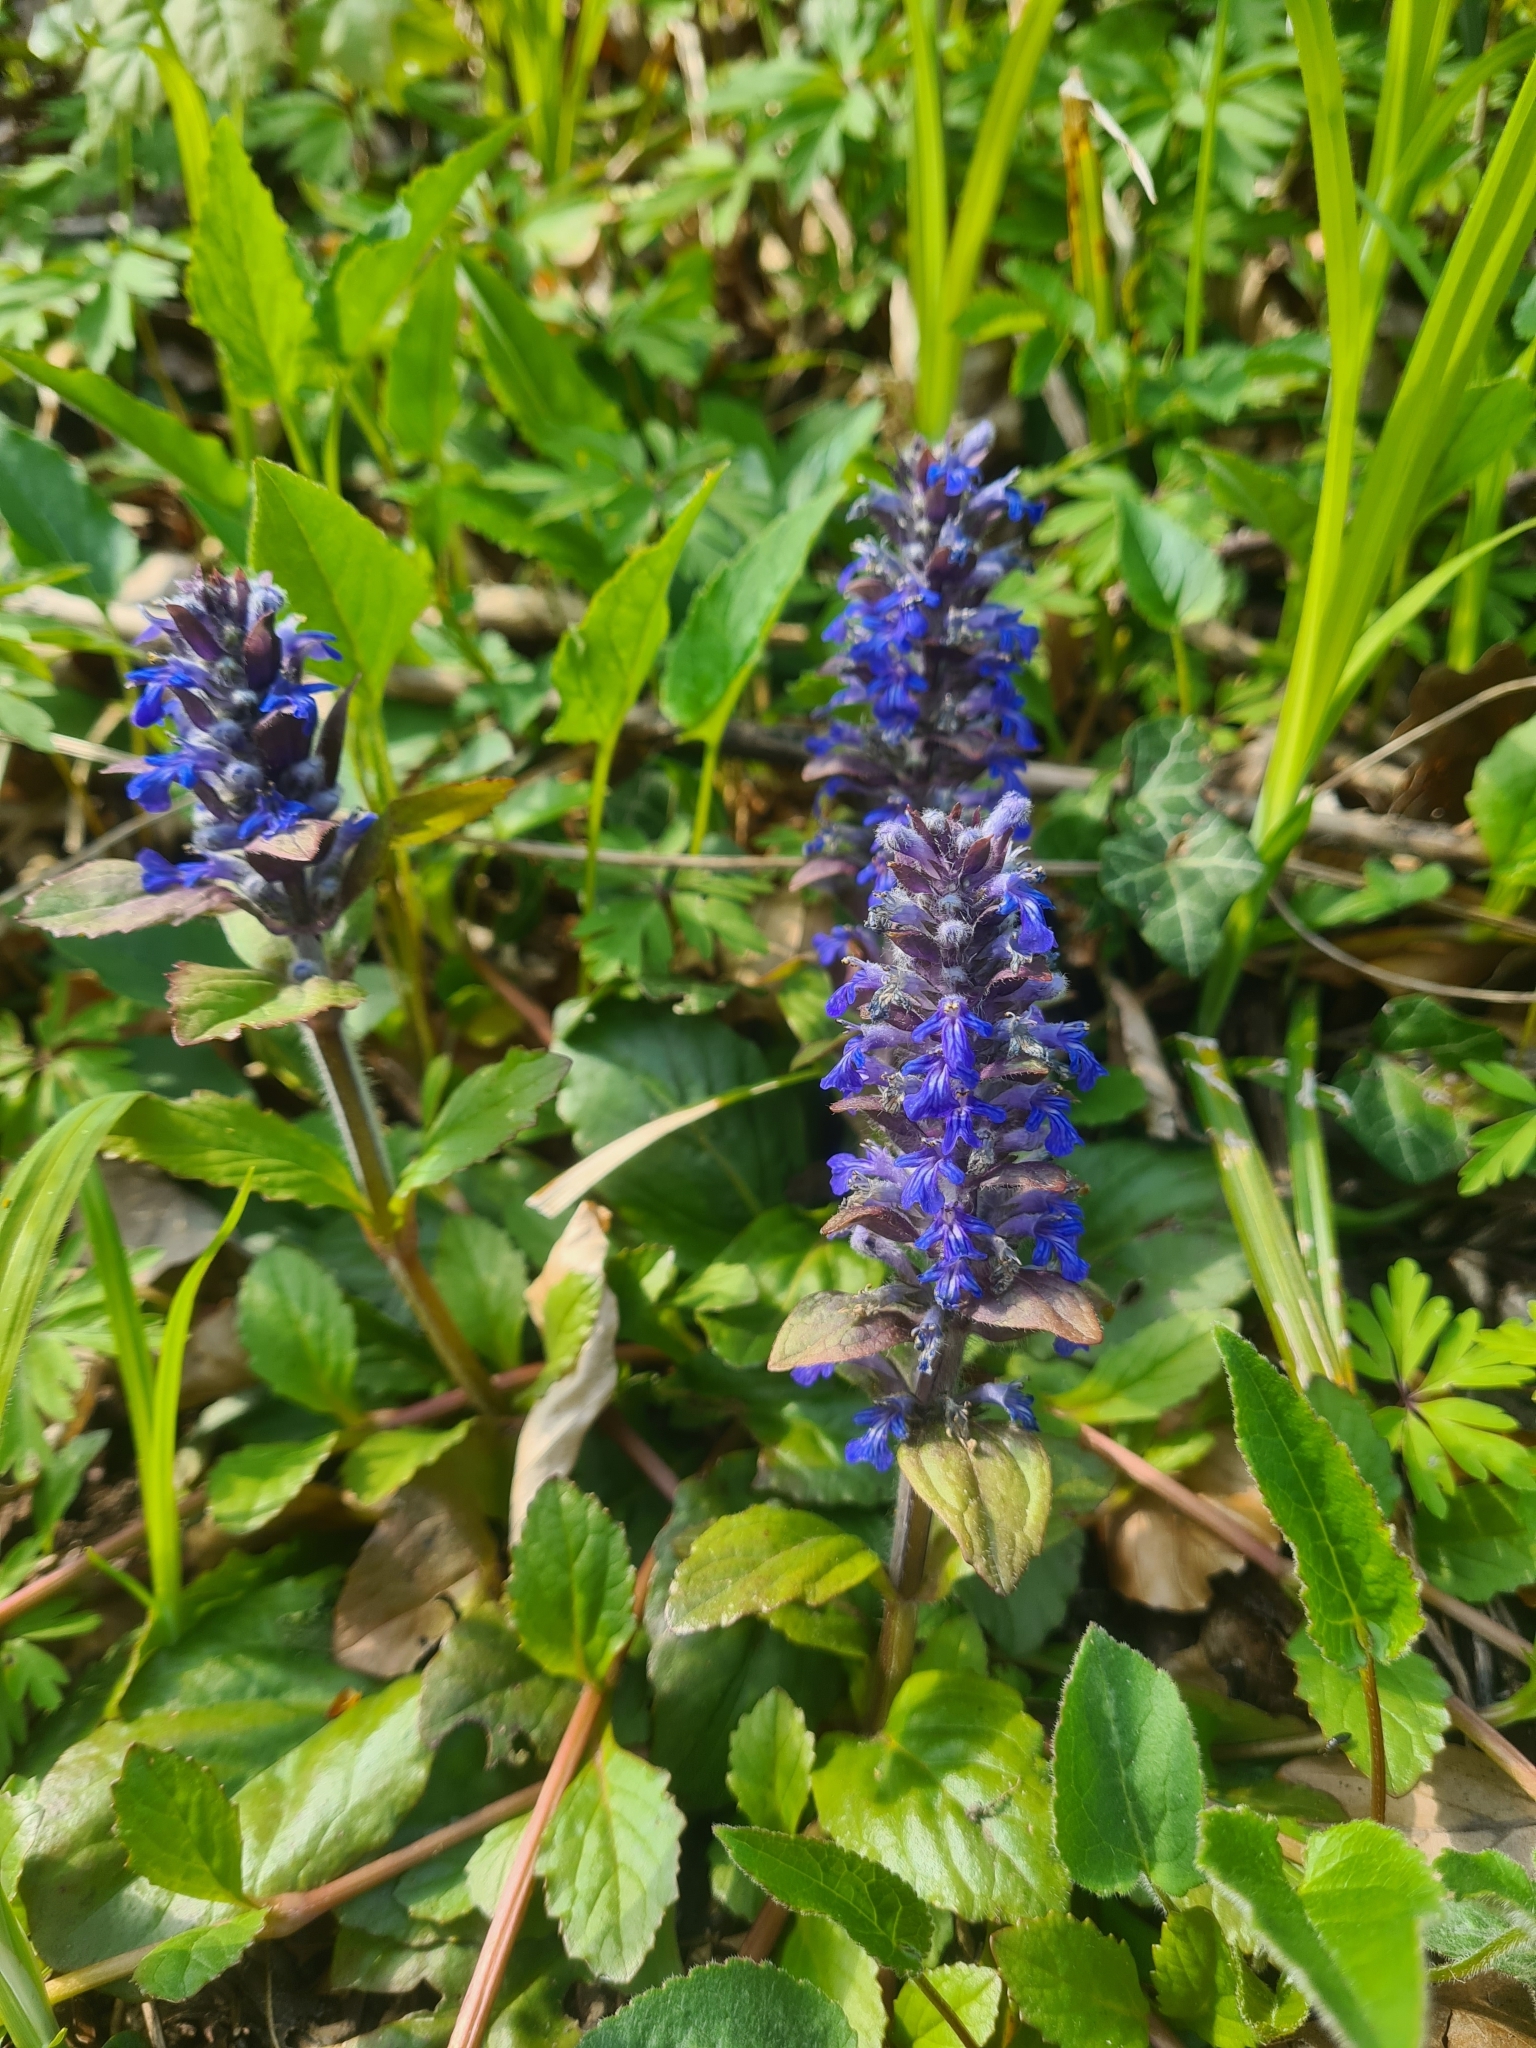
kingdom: Plantae
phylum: Tracheophyta
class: Magnoliopsida
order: Lamiales
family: Lamiaceae
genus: Ajuga
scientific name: Ajuga reptans
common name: Bugle
